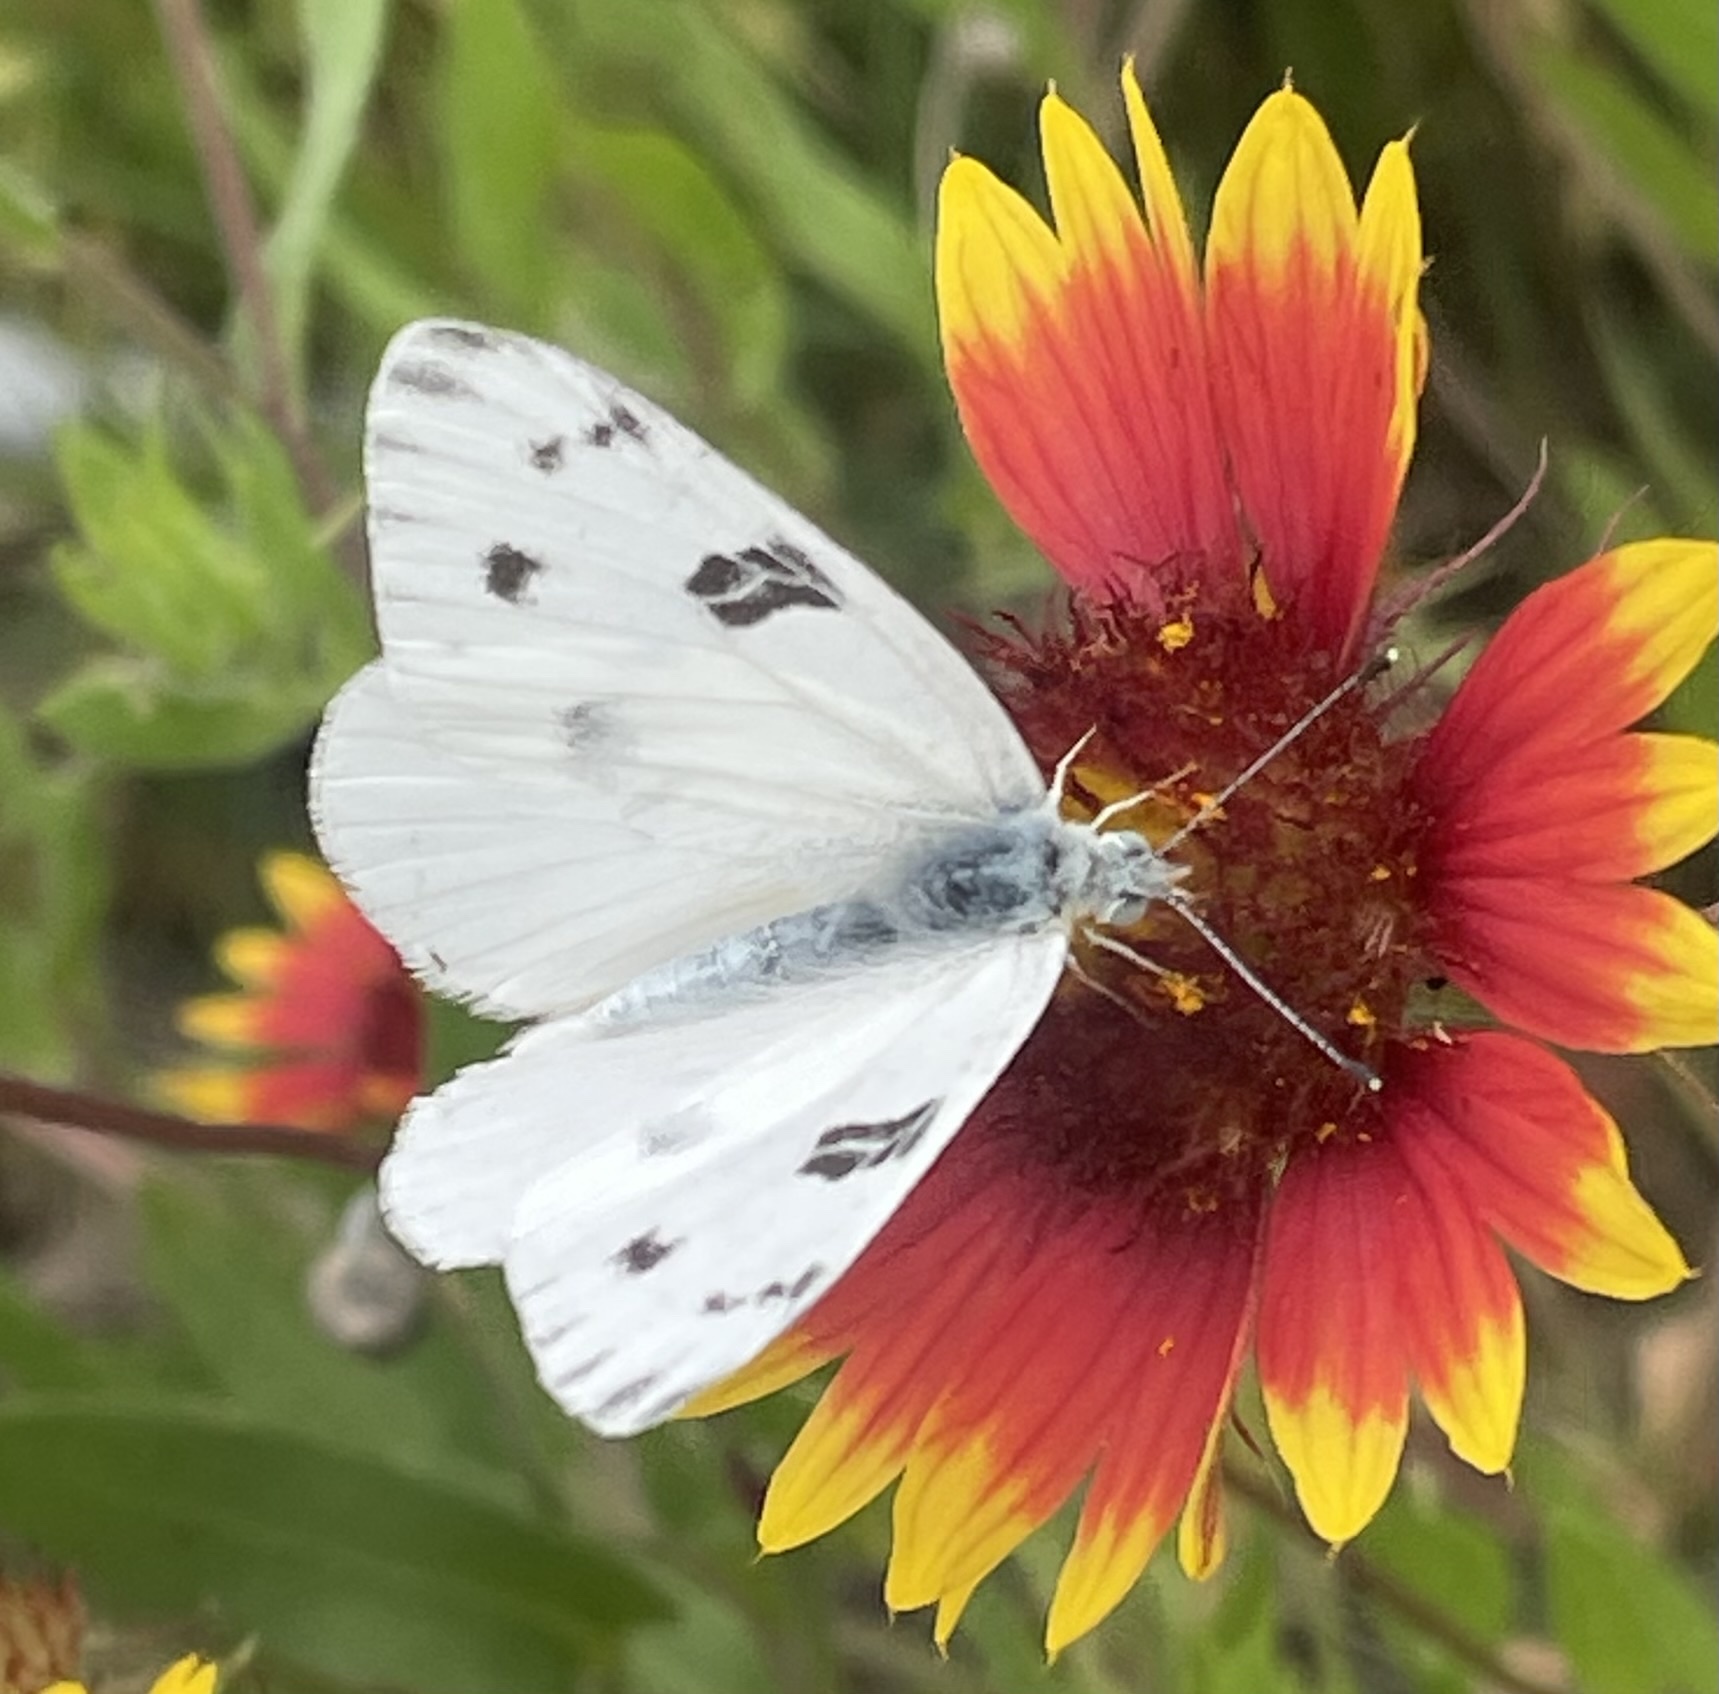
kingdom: Animalia
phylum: Arthropoda
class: Insecta
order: Lepidoptera
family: Pieridae
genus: Pontia
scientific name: Pontia protodice
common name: Checkered white
